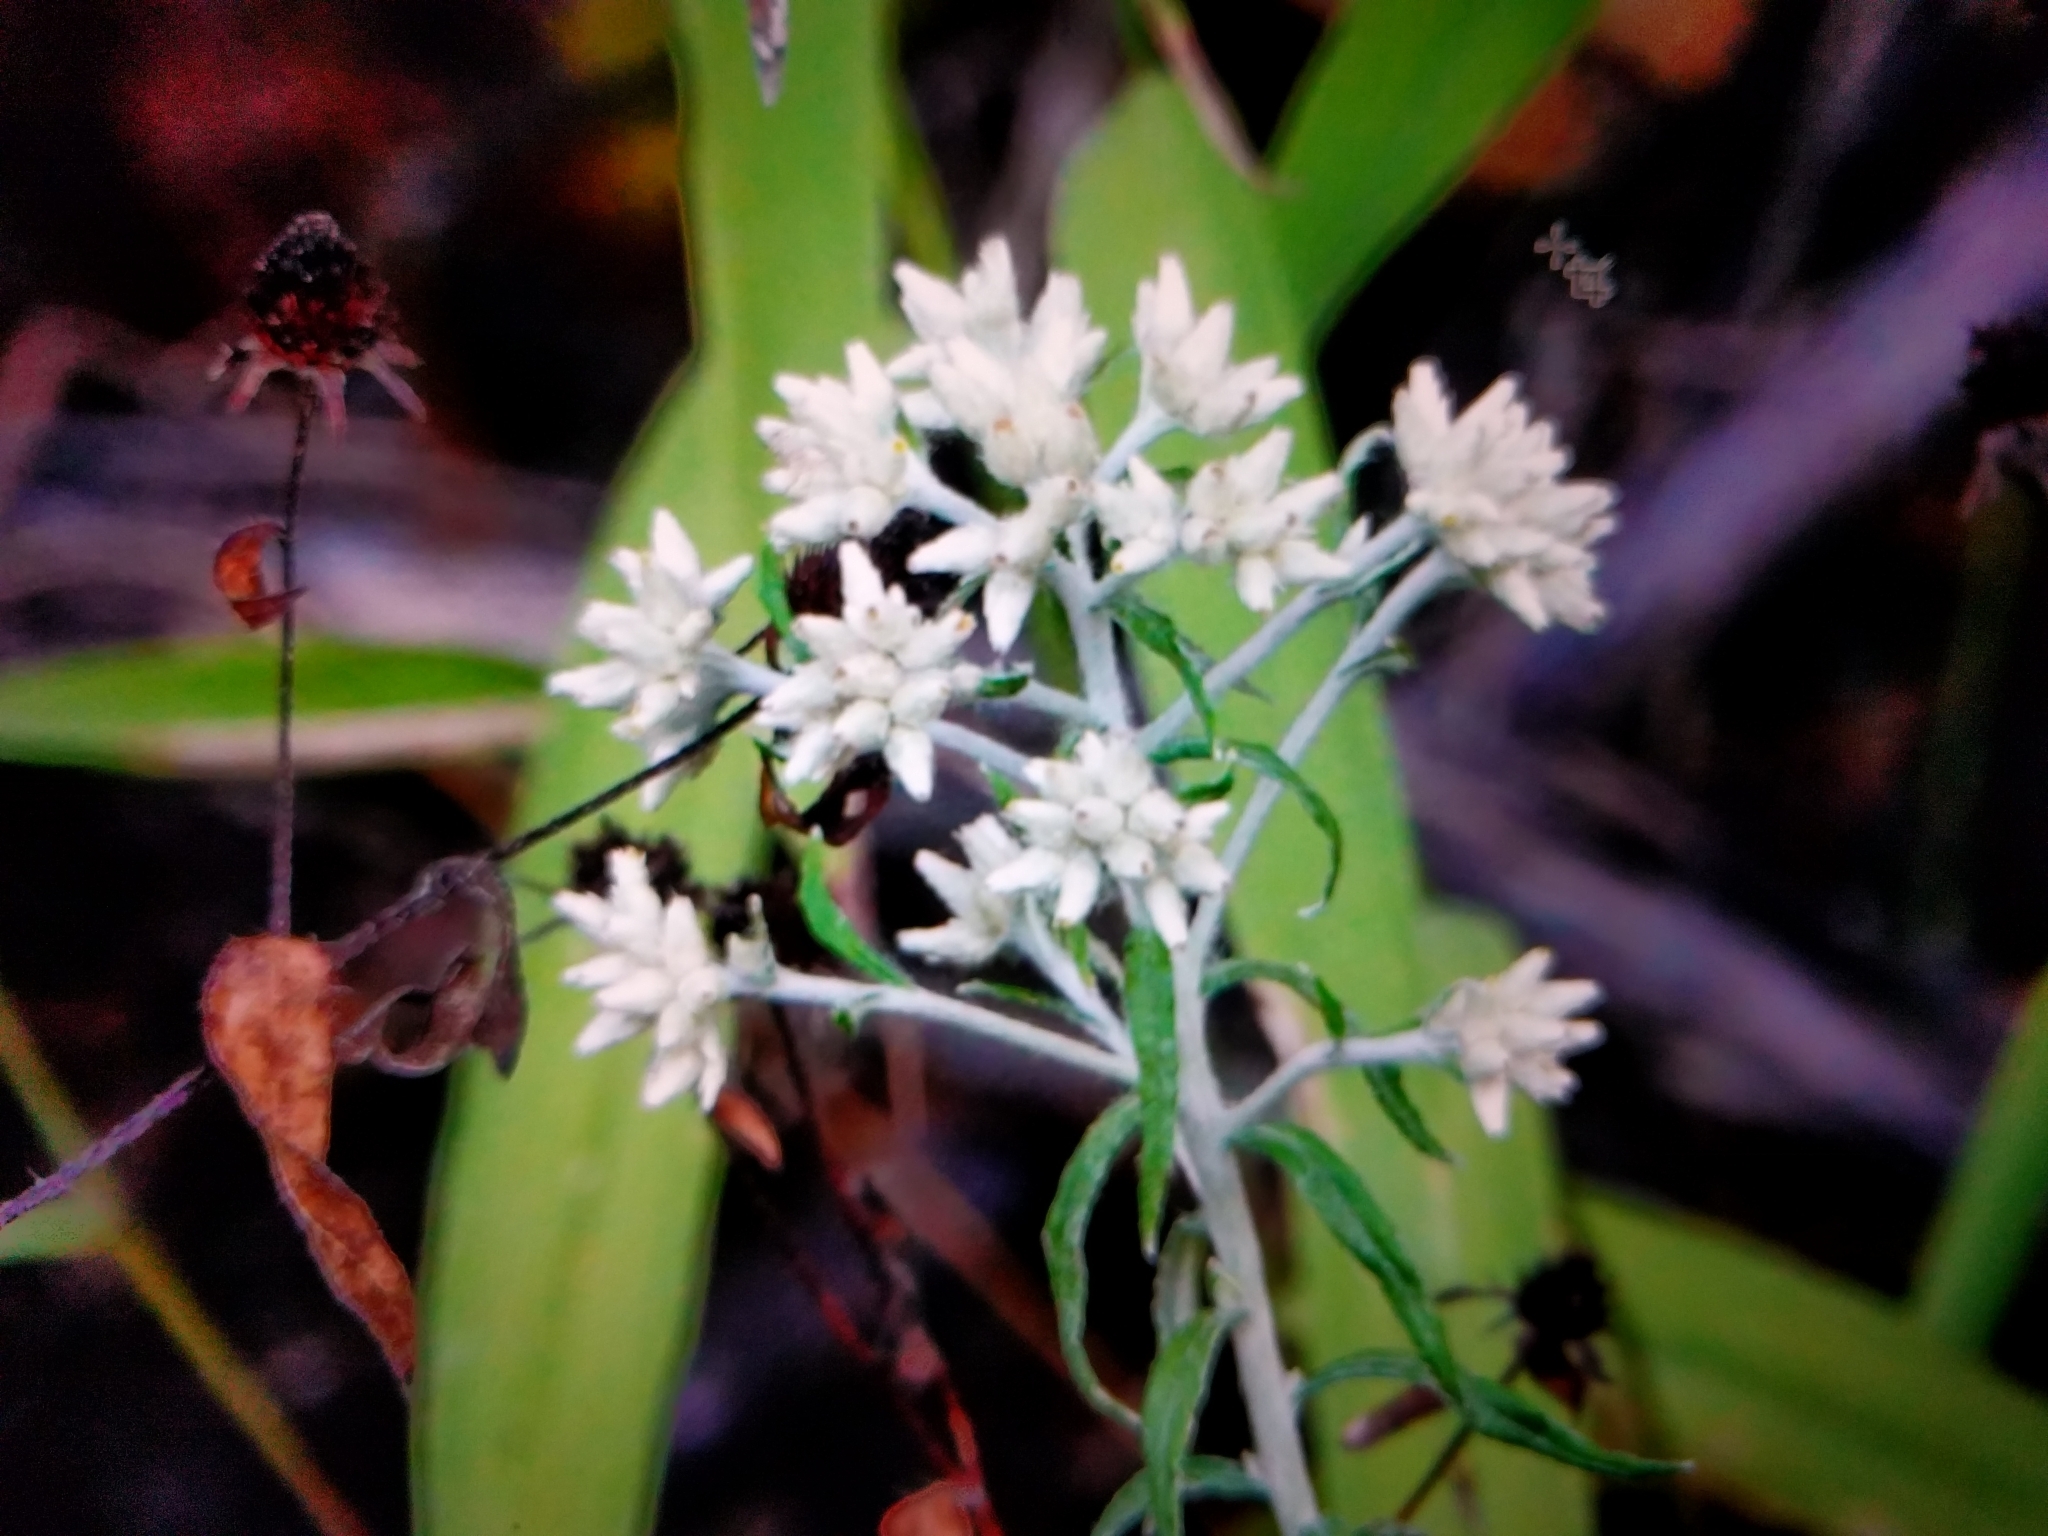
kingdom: Plantae
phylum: Tracheophyta
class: Magnoliopsida
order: Asterales
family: Asteraceae
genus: Pseudognaphalium
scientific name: Pseudognaphalium obtusifolium
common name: Eastern rabbit-tobacco
